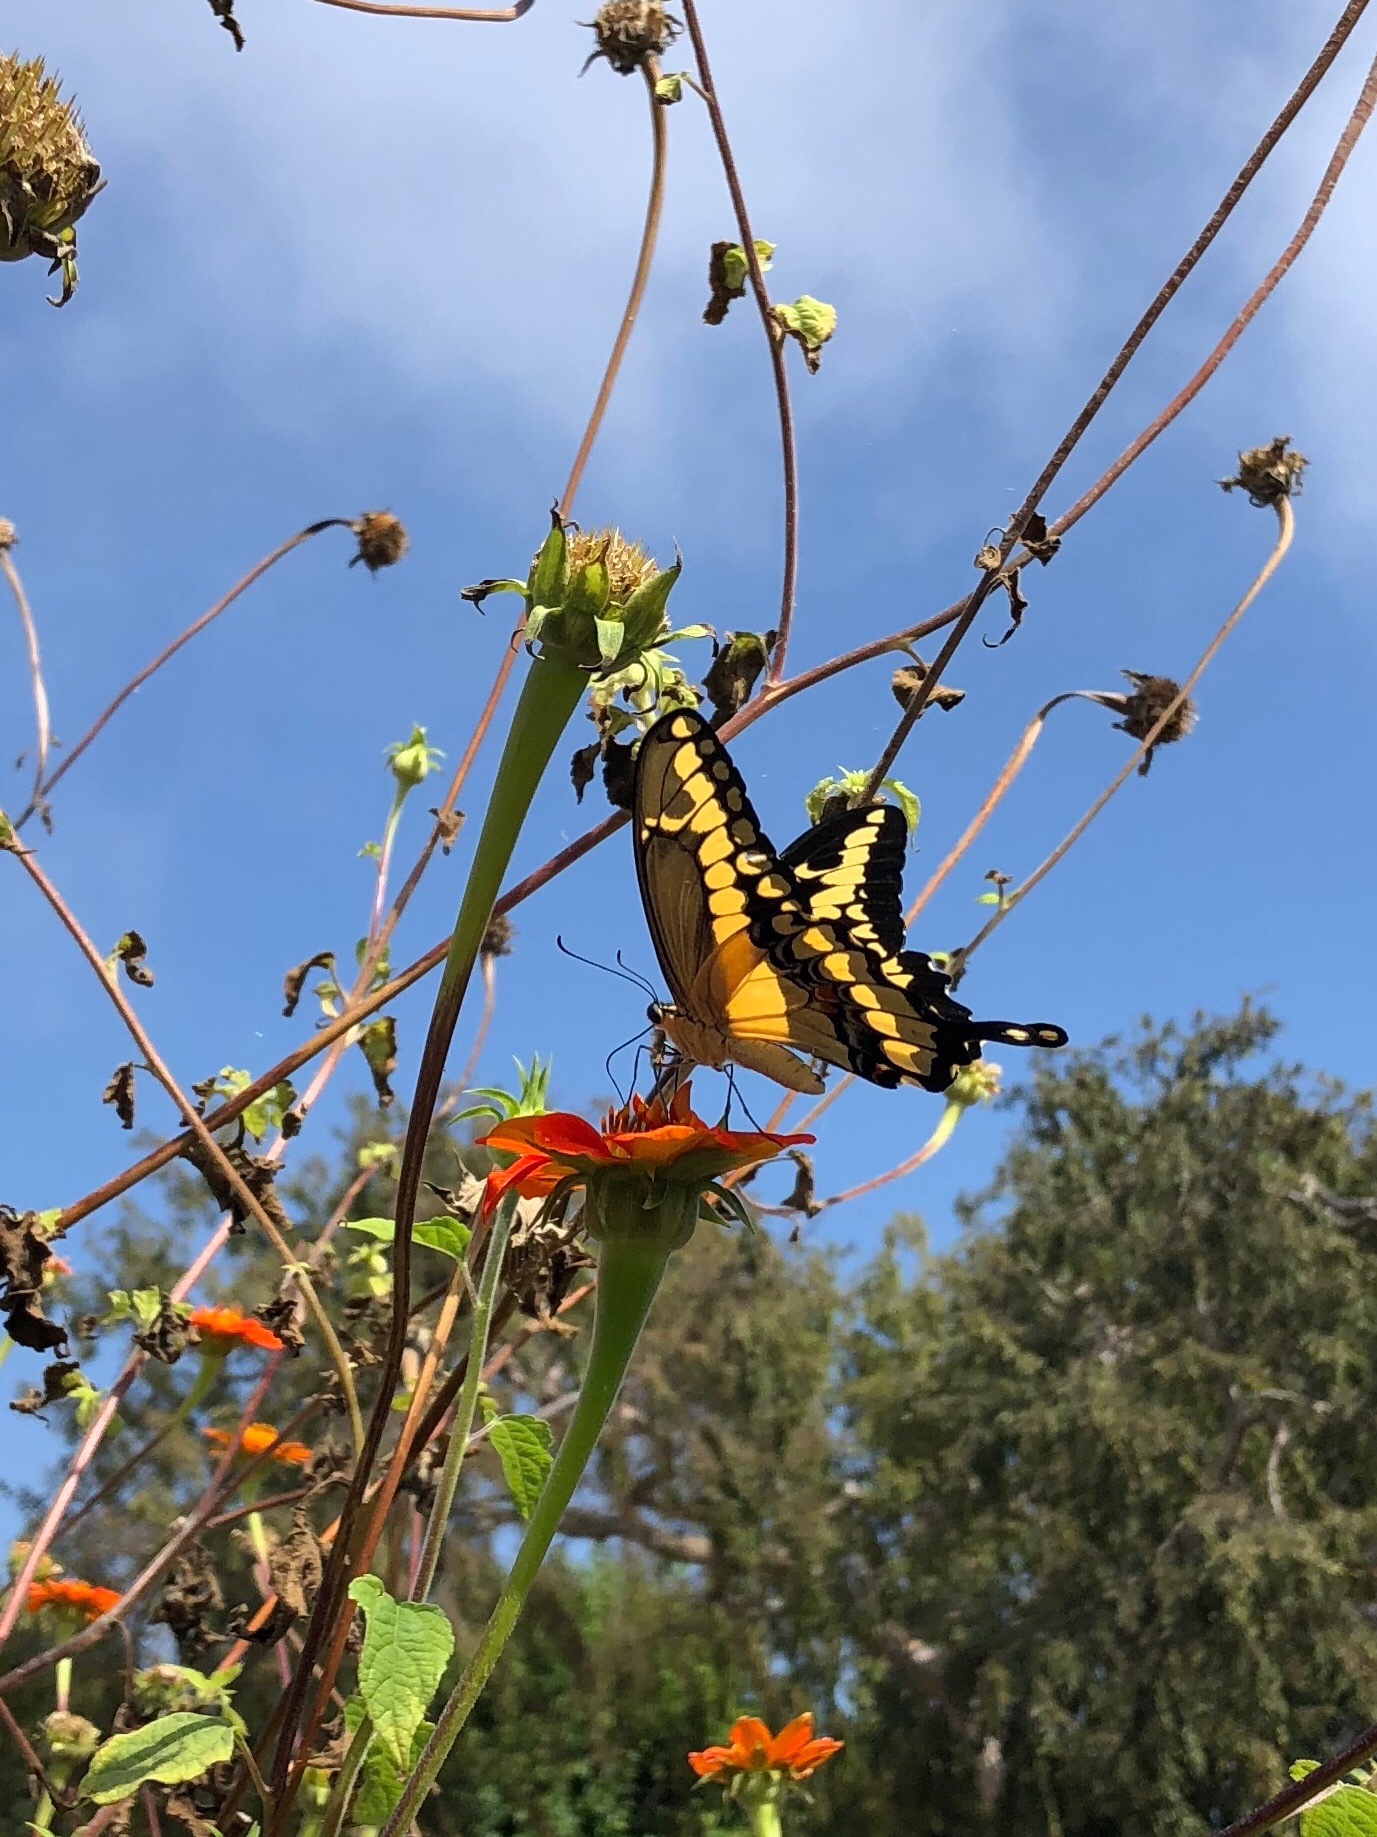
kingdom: Animalia
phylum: Arthropoda
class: Insecta
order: Lepidoptera
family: Papilionidae
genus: Papilio
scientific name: Papilio rumiko
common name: Western giant swallowtail
